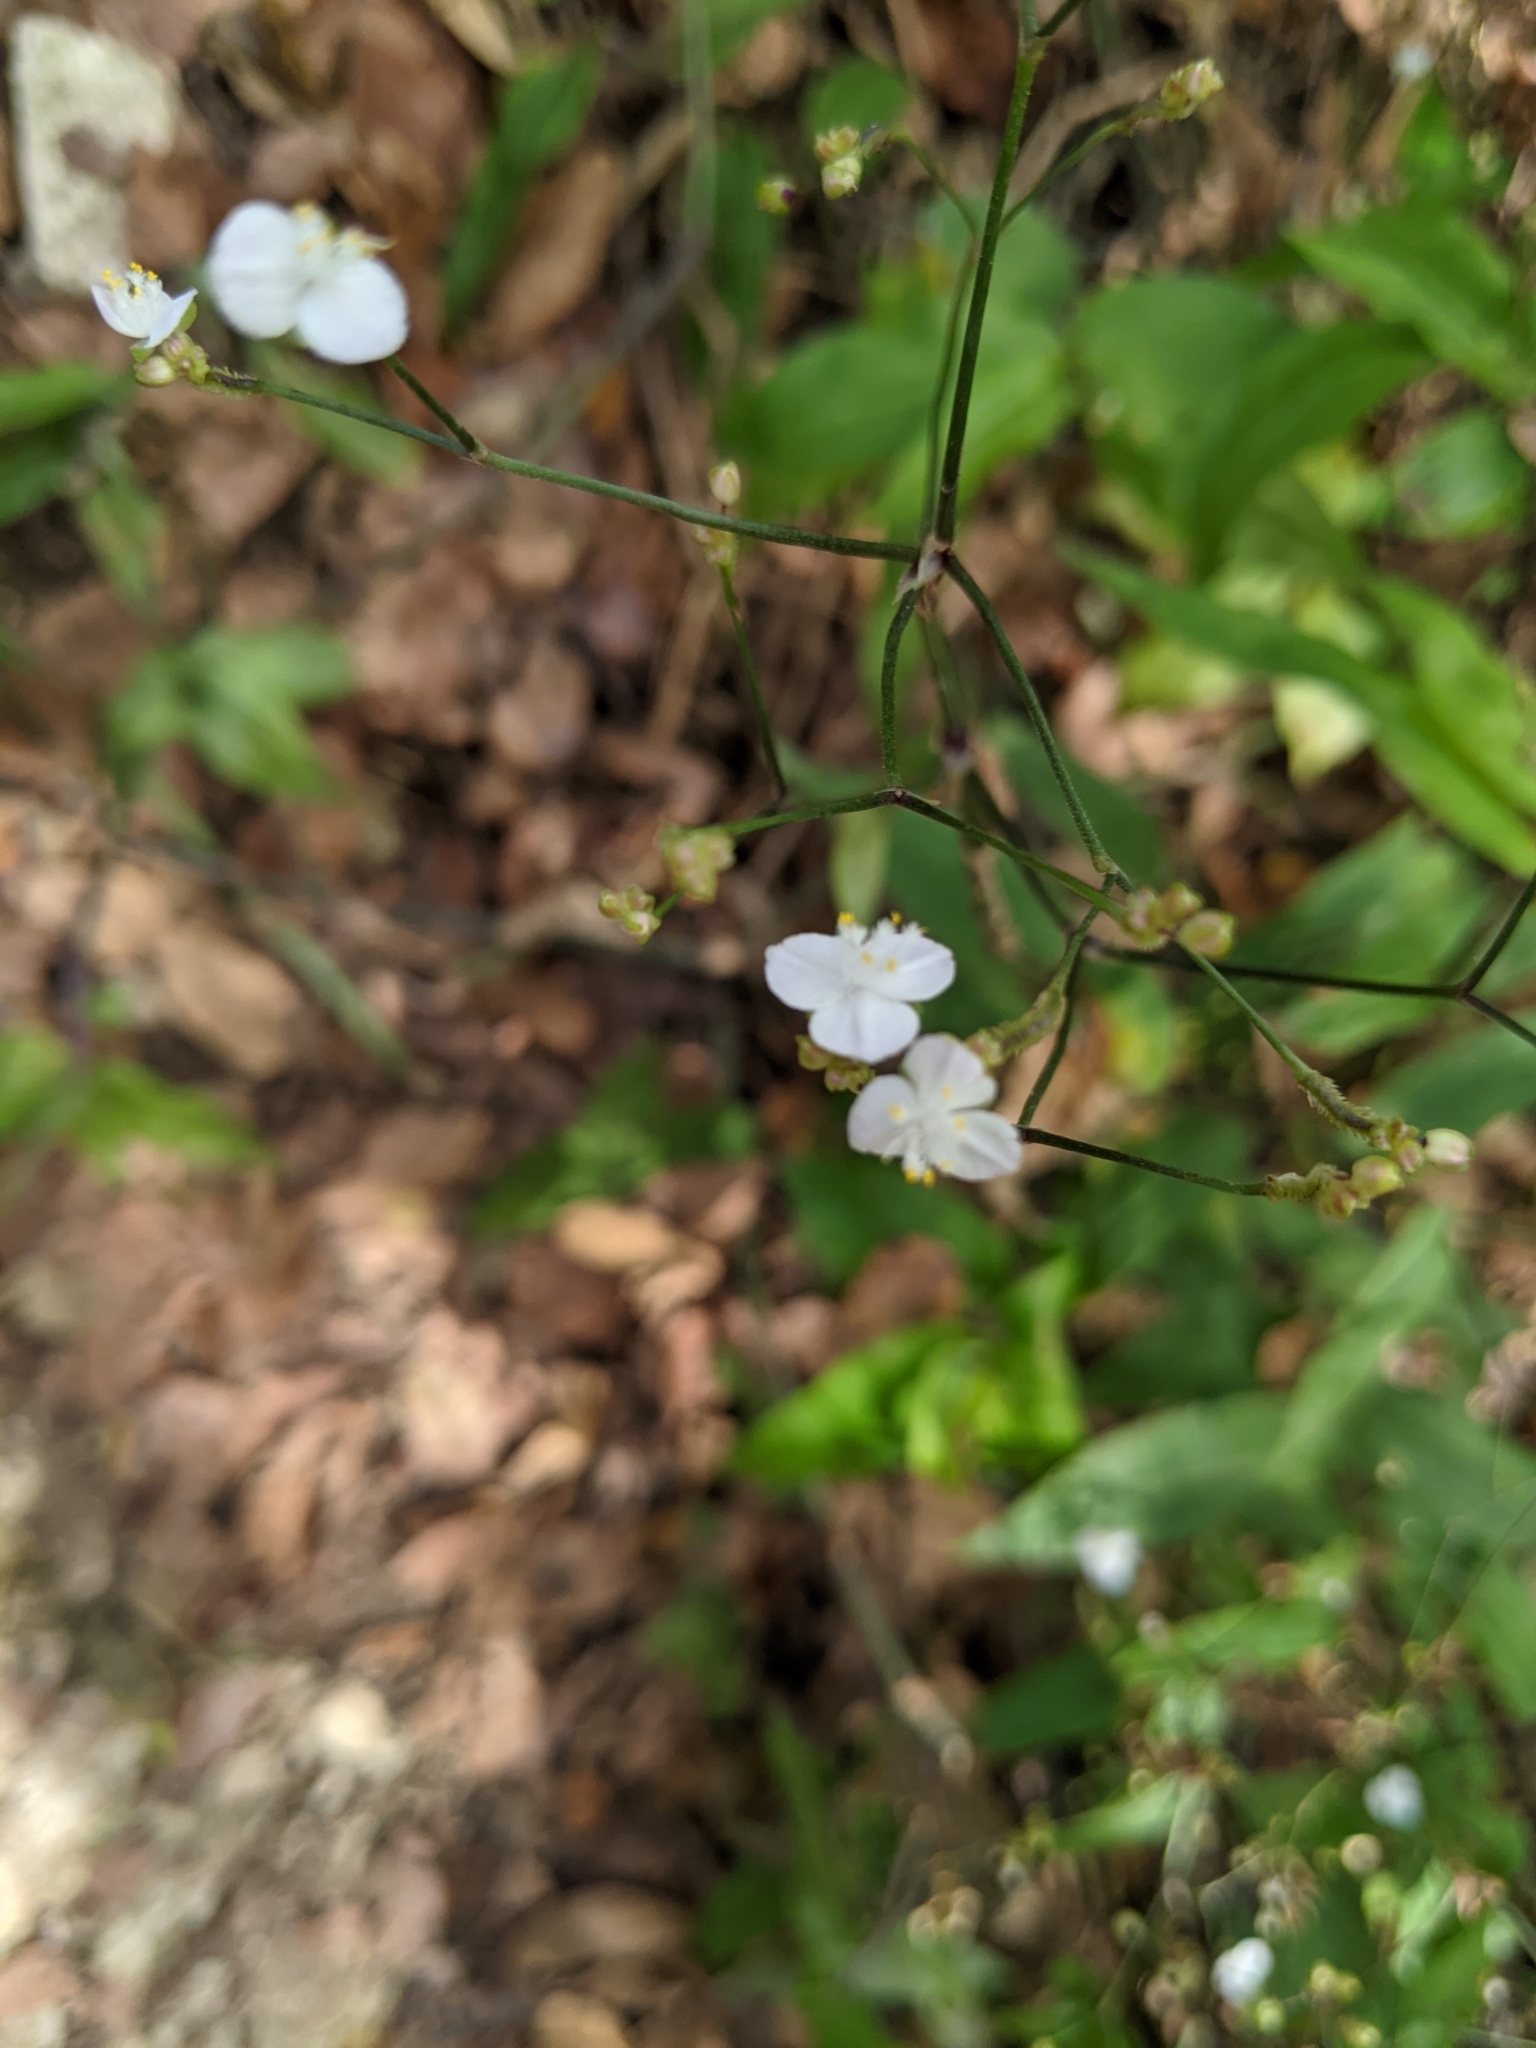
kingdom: Plantae
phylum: Tracheophyta
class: Liliopsida
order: Commelinales
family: Commelinaceae
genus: Gibasis
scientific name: Gibasis pellucida
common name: Dotted bridalveil
